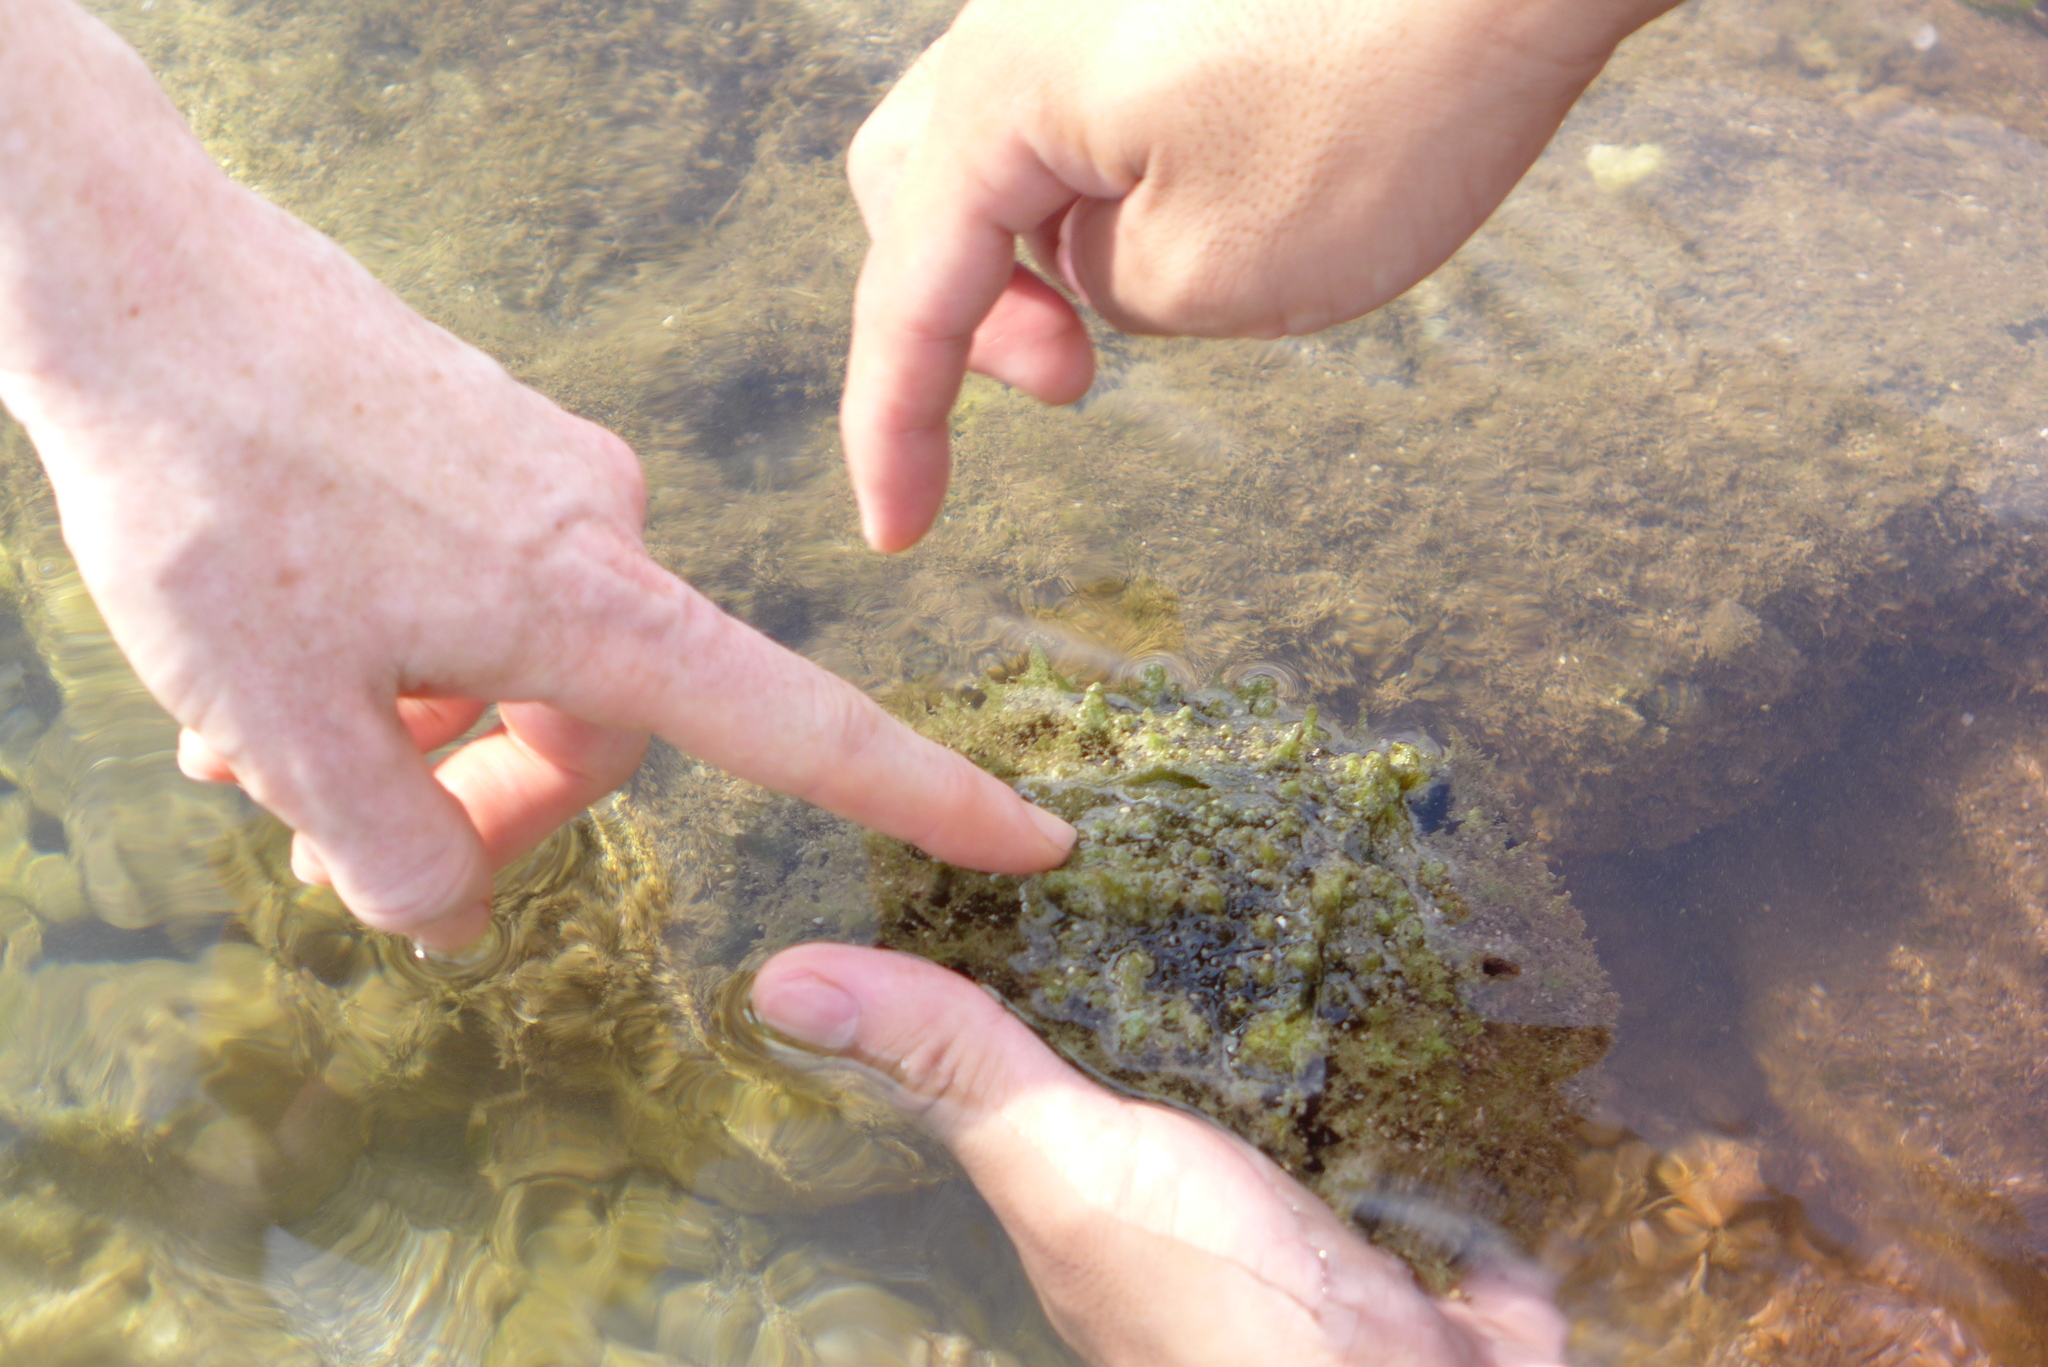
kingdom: Animalia
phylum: Mollusca
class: Gastropoda
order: Aplysiida
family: Aplysiidae
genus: Dolabella
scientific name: Dolabella auricularia
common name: Blunt-end seahare
